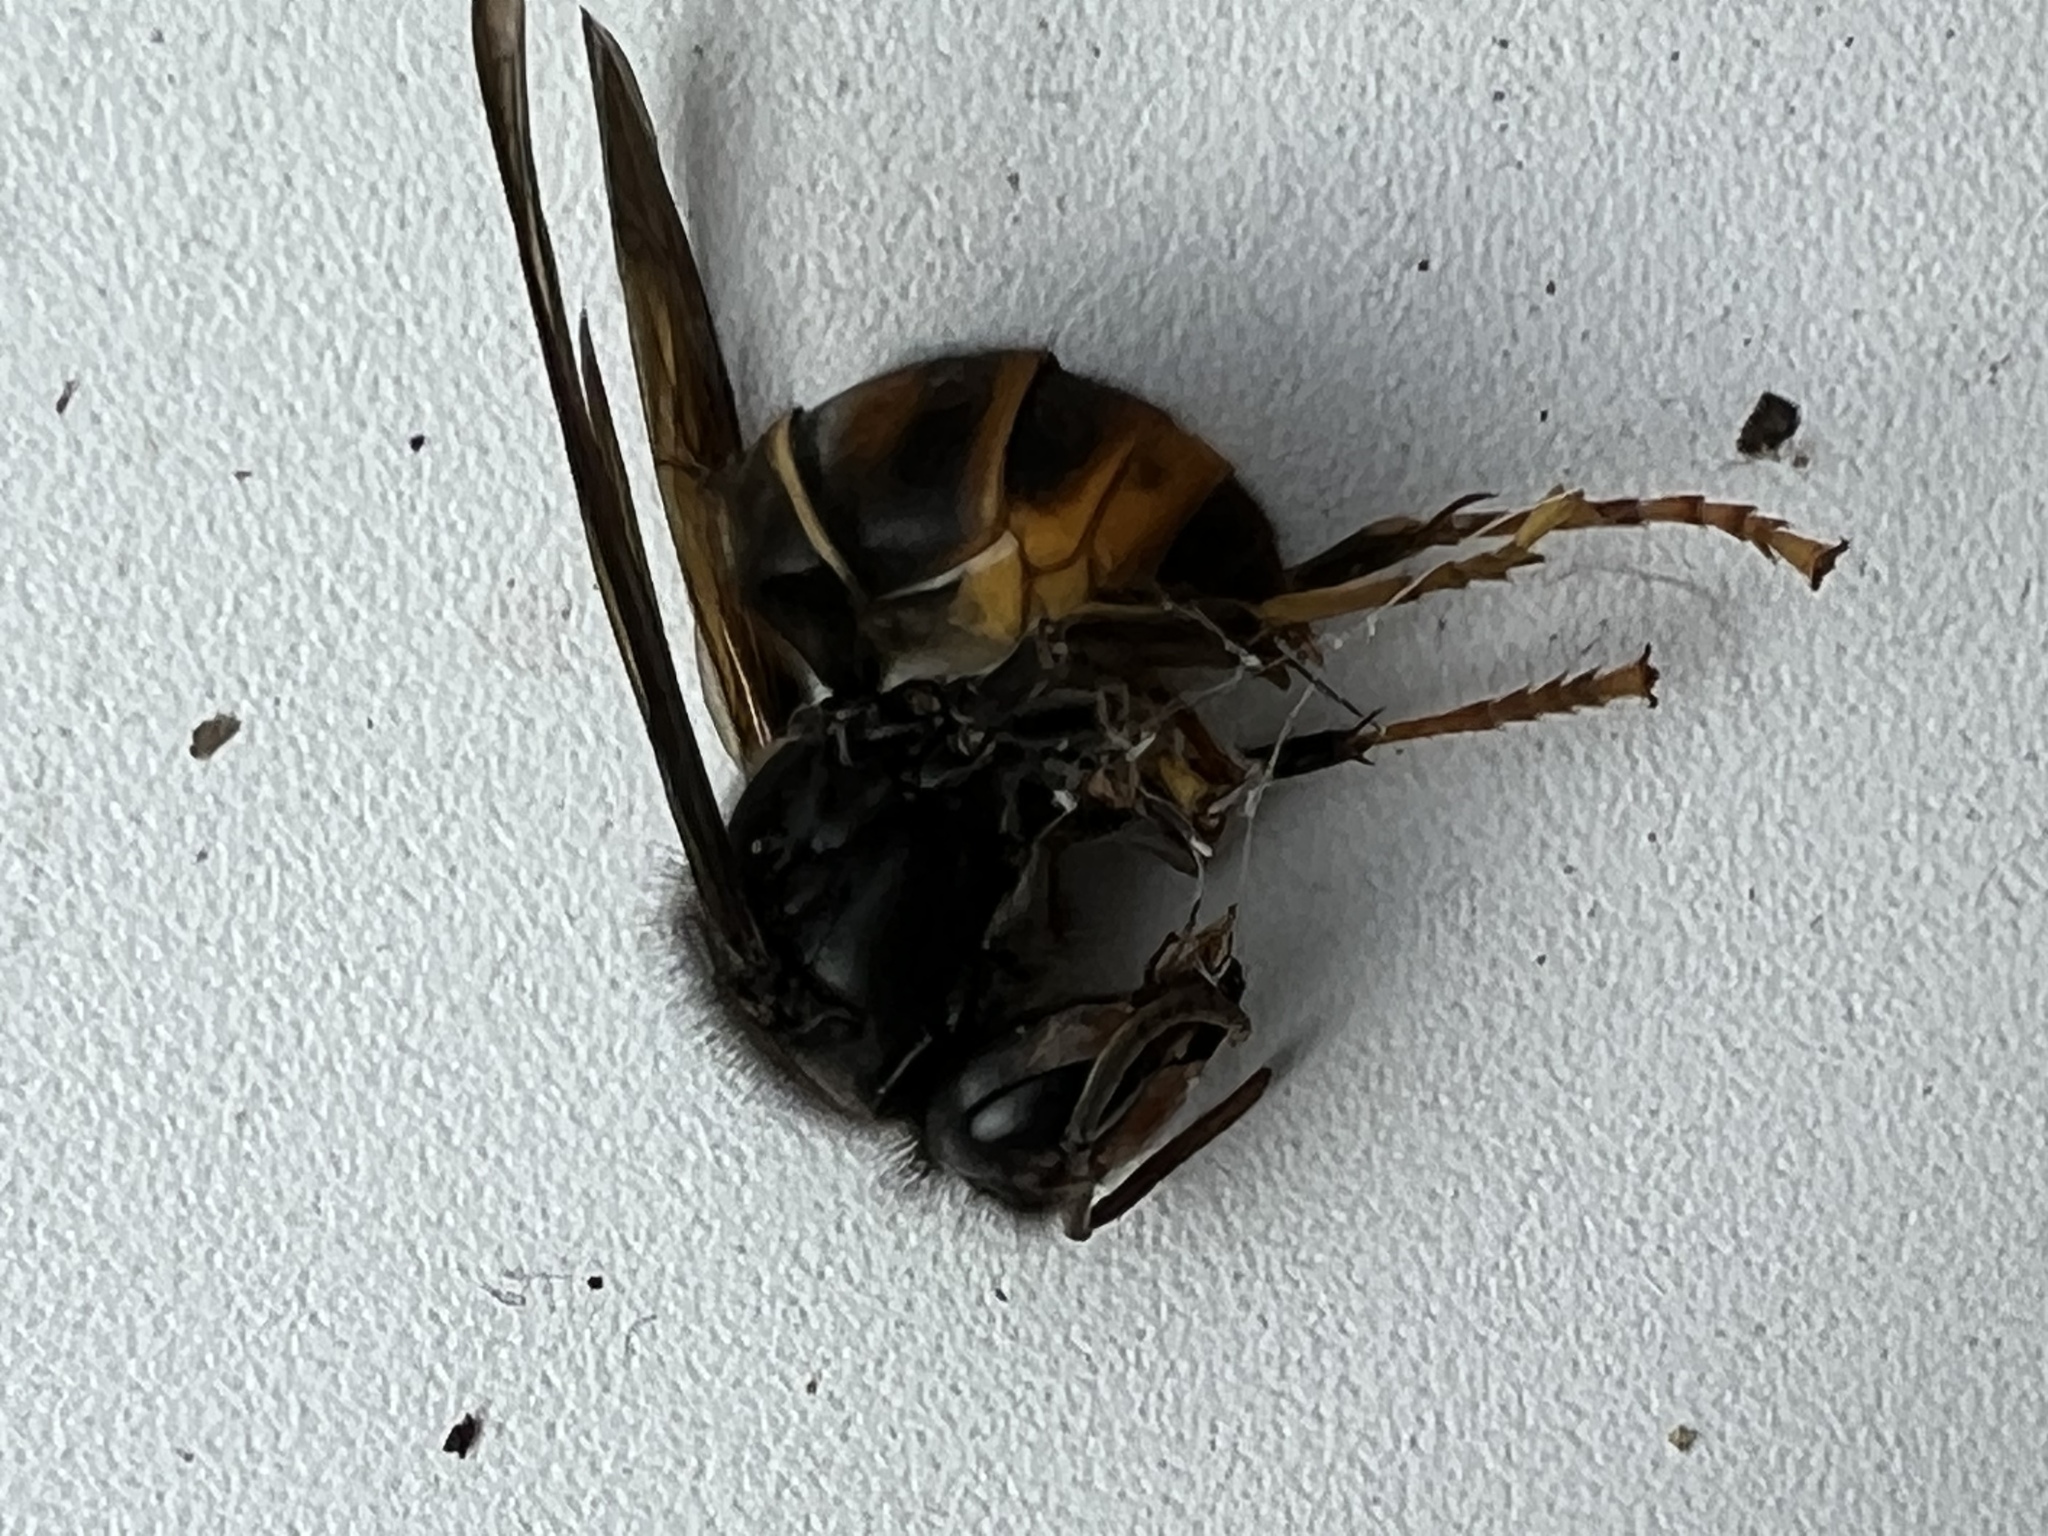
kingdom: Animalia
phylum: Arthropoda
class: Insecta
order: Hymenoptera
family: Vespidae
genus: Vespa
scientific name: Vespa velutina
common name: Asian hornet
